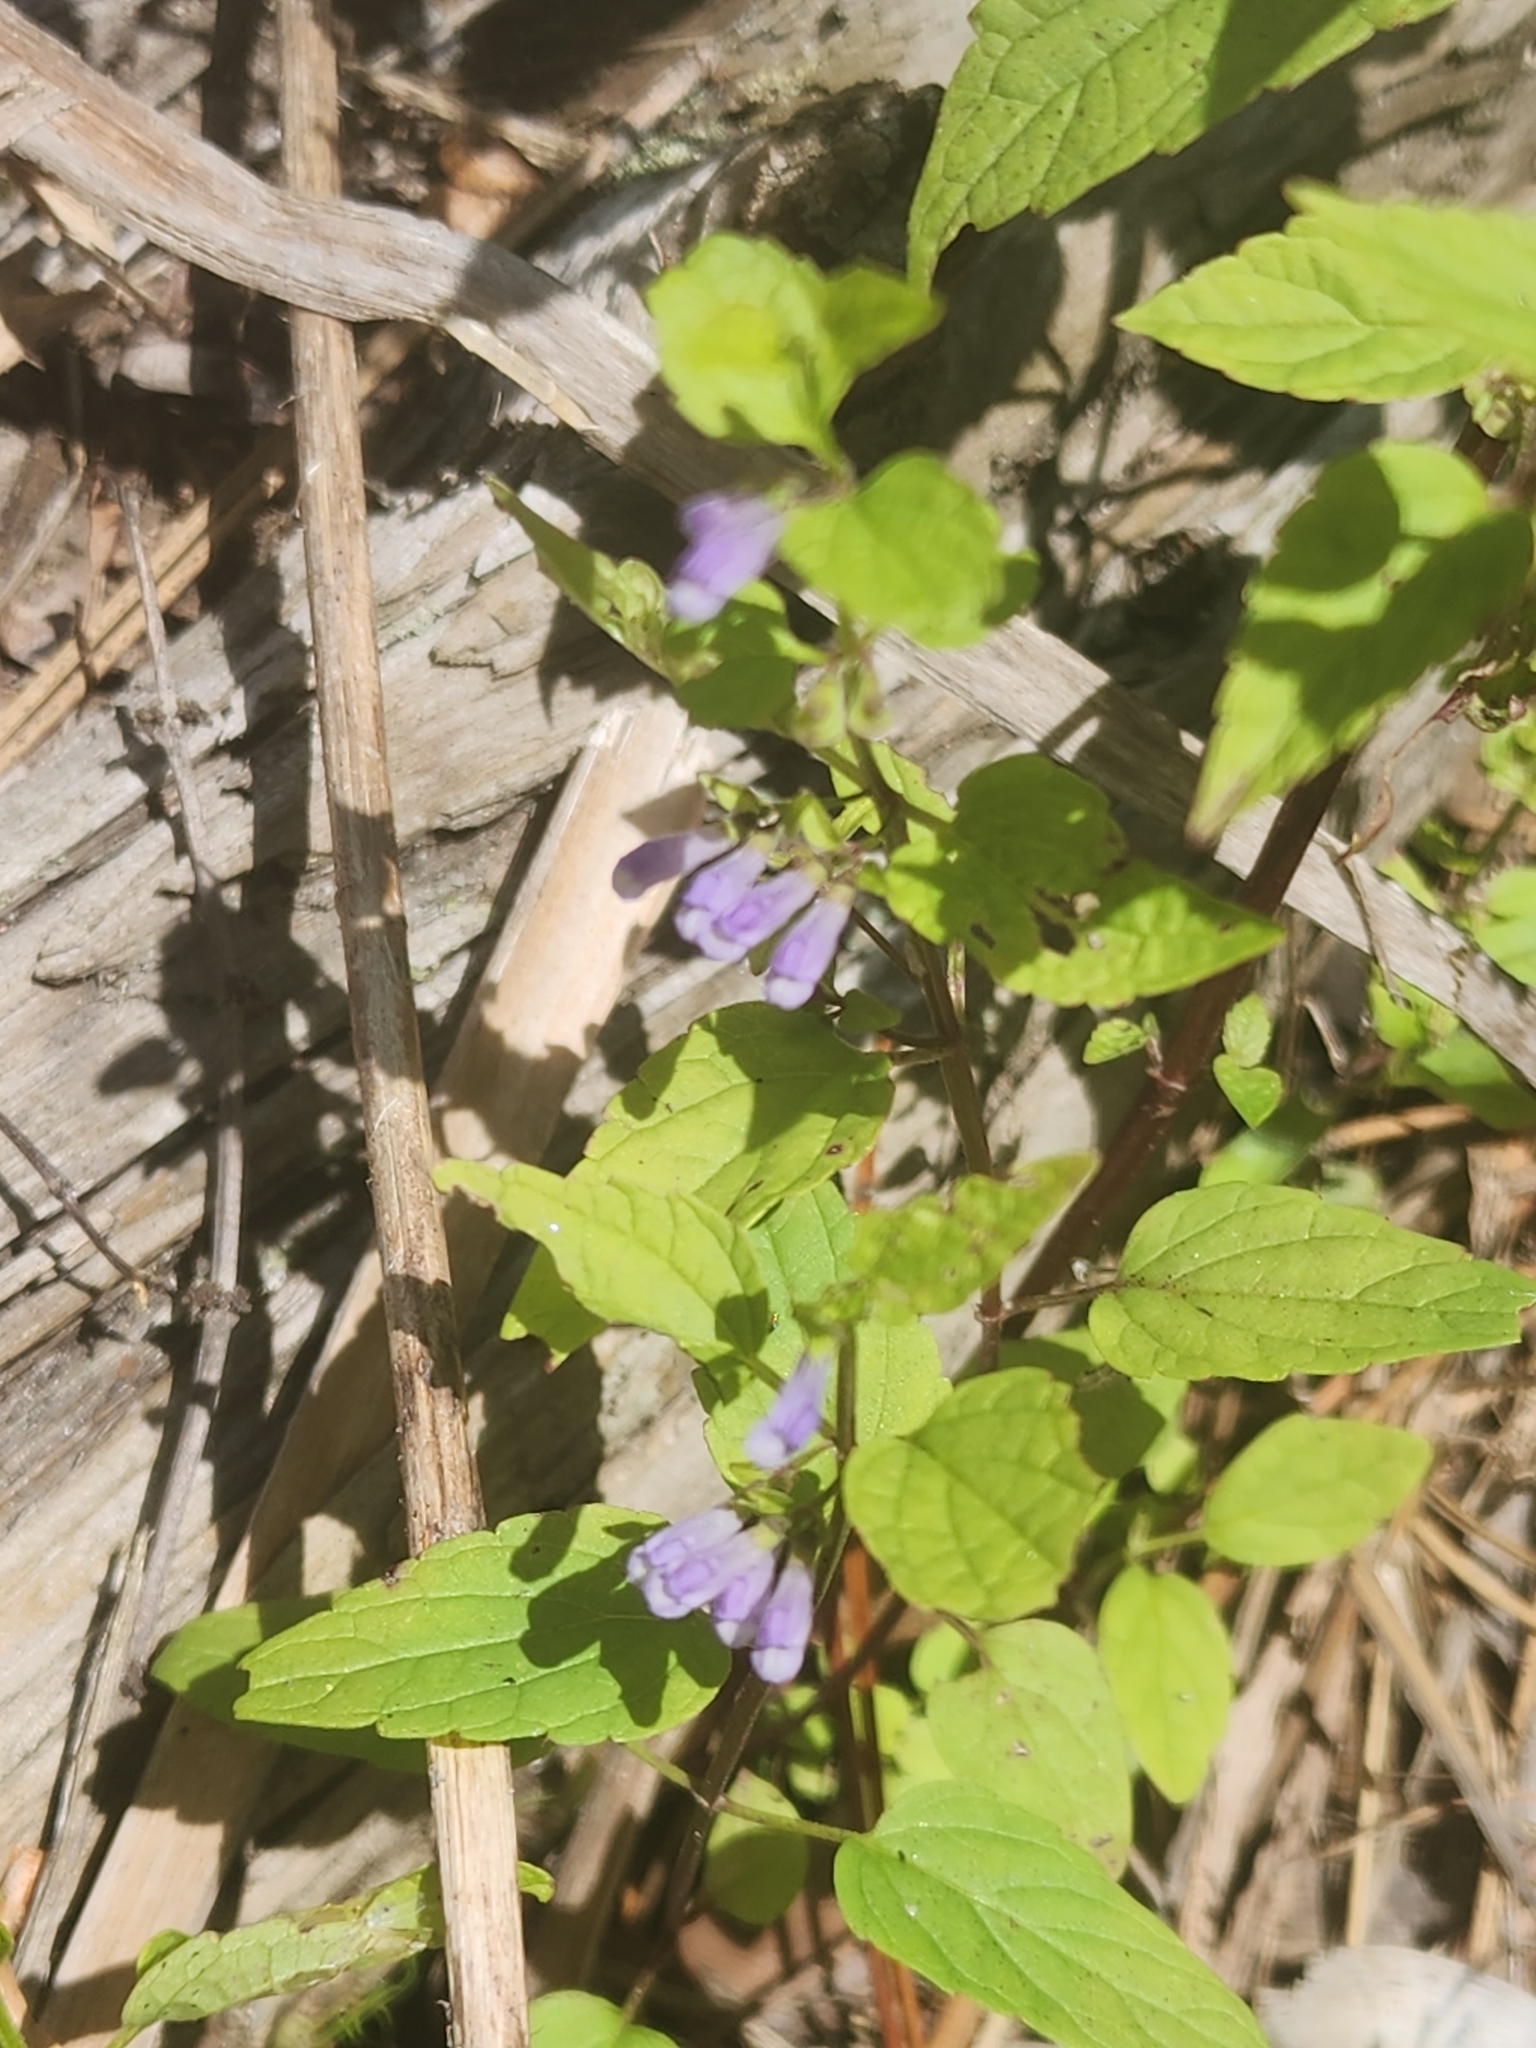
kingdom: Plantae
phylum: Tracheophyta
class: Magnoliopsida
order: Lamiales
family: Lamiaceae
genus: Scutellaria
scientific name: Scutellaria lateriflora
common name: Blue skullcap
